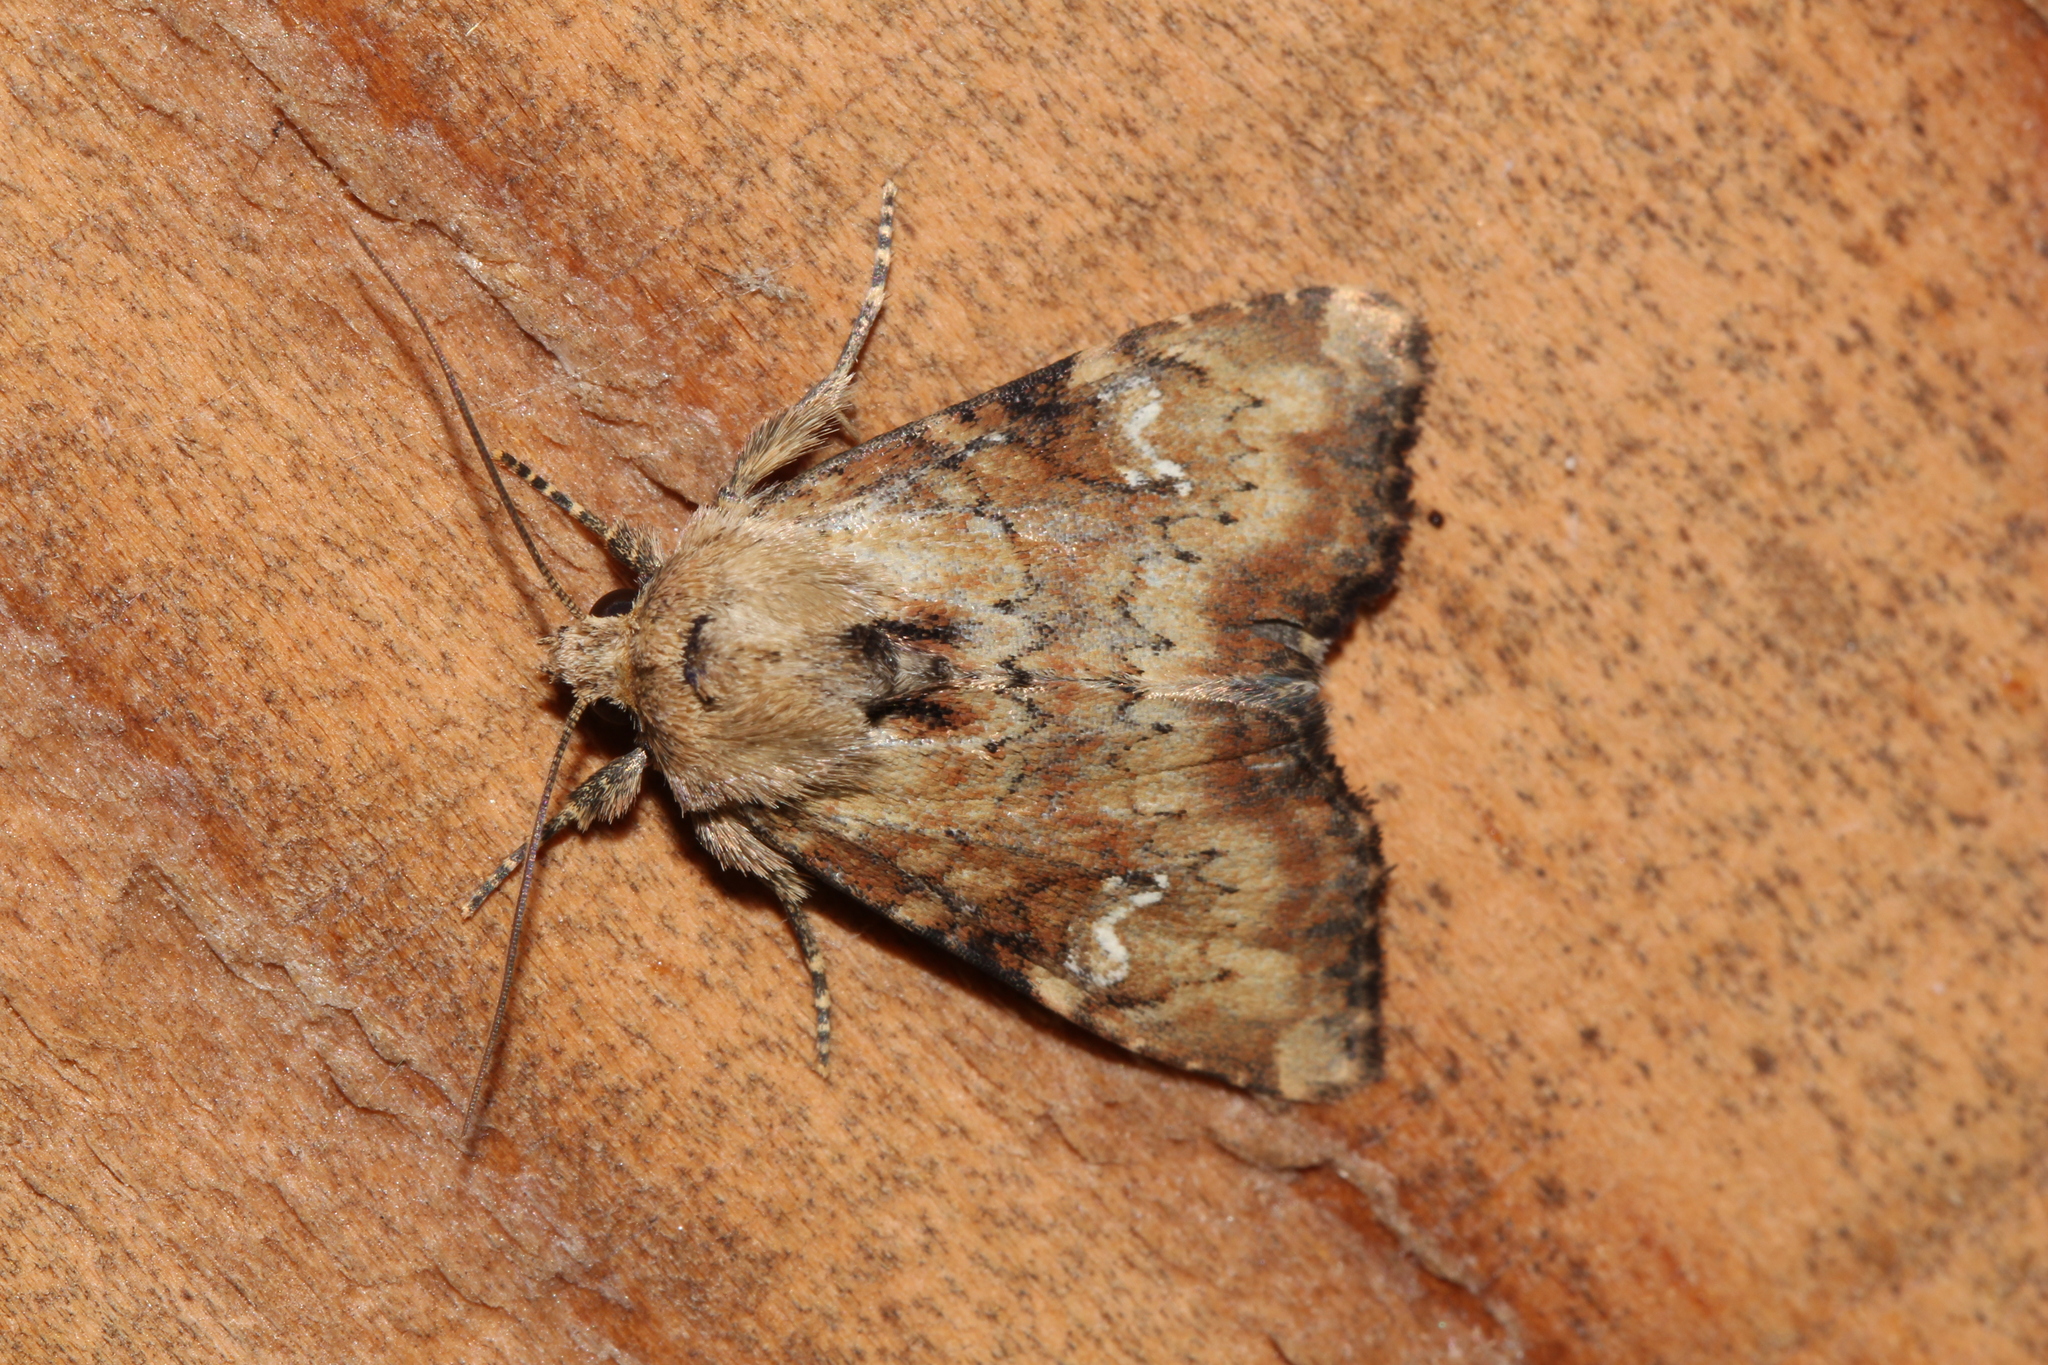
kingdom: Animalia
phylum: Arthropoda
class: Insecta
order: Lepidoptera
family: Noctuidae
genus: Loscopia
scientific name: Loscopia scolopacina
